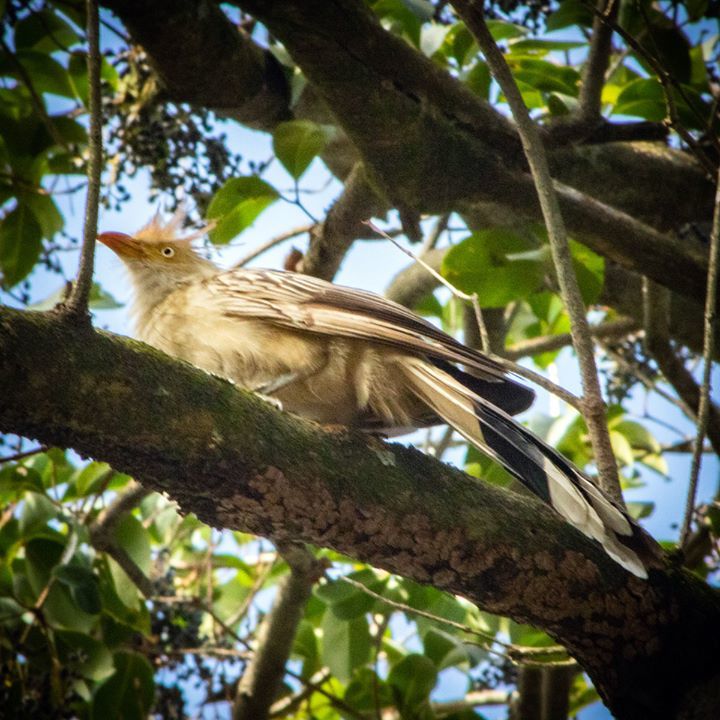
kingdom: Animalia
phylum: Chordata
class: Aves
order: Cuculiformes
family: Cuculidae
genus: Guira
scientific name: Guira guira
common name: Guira cuckoo
